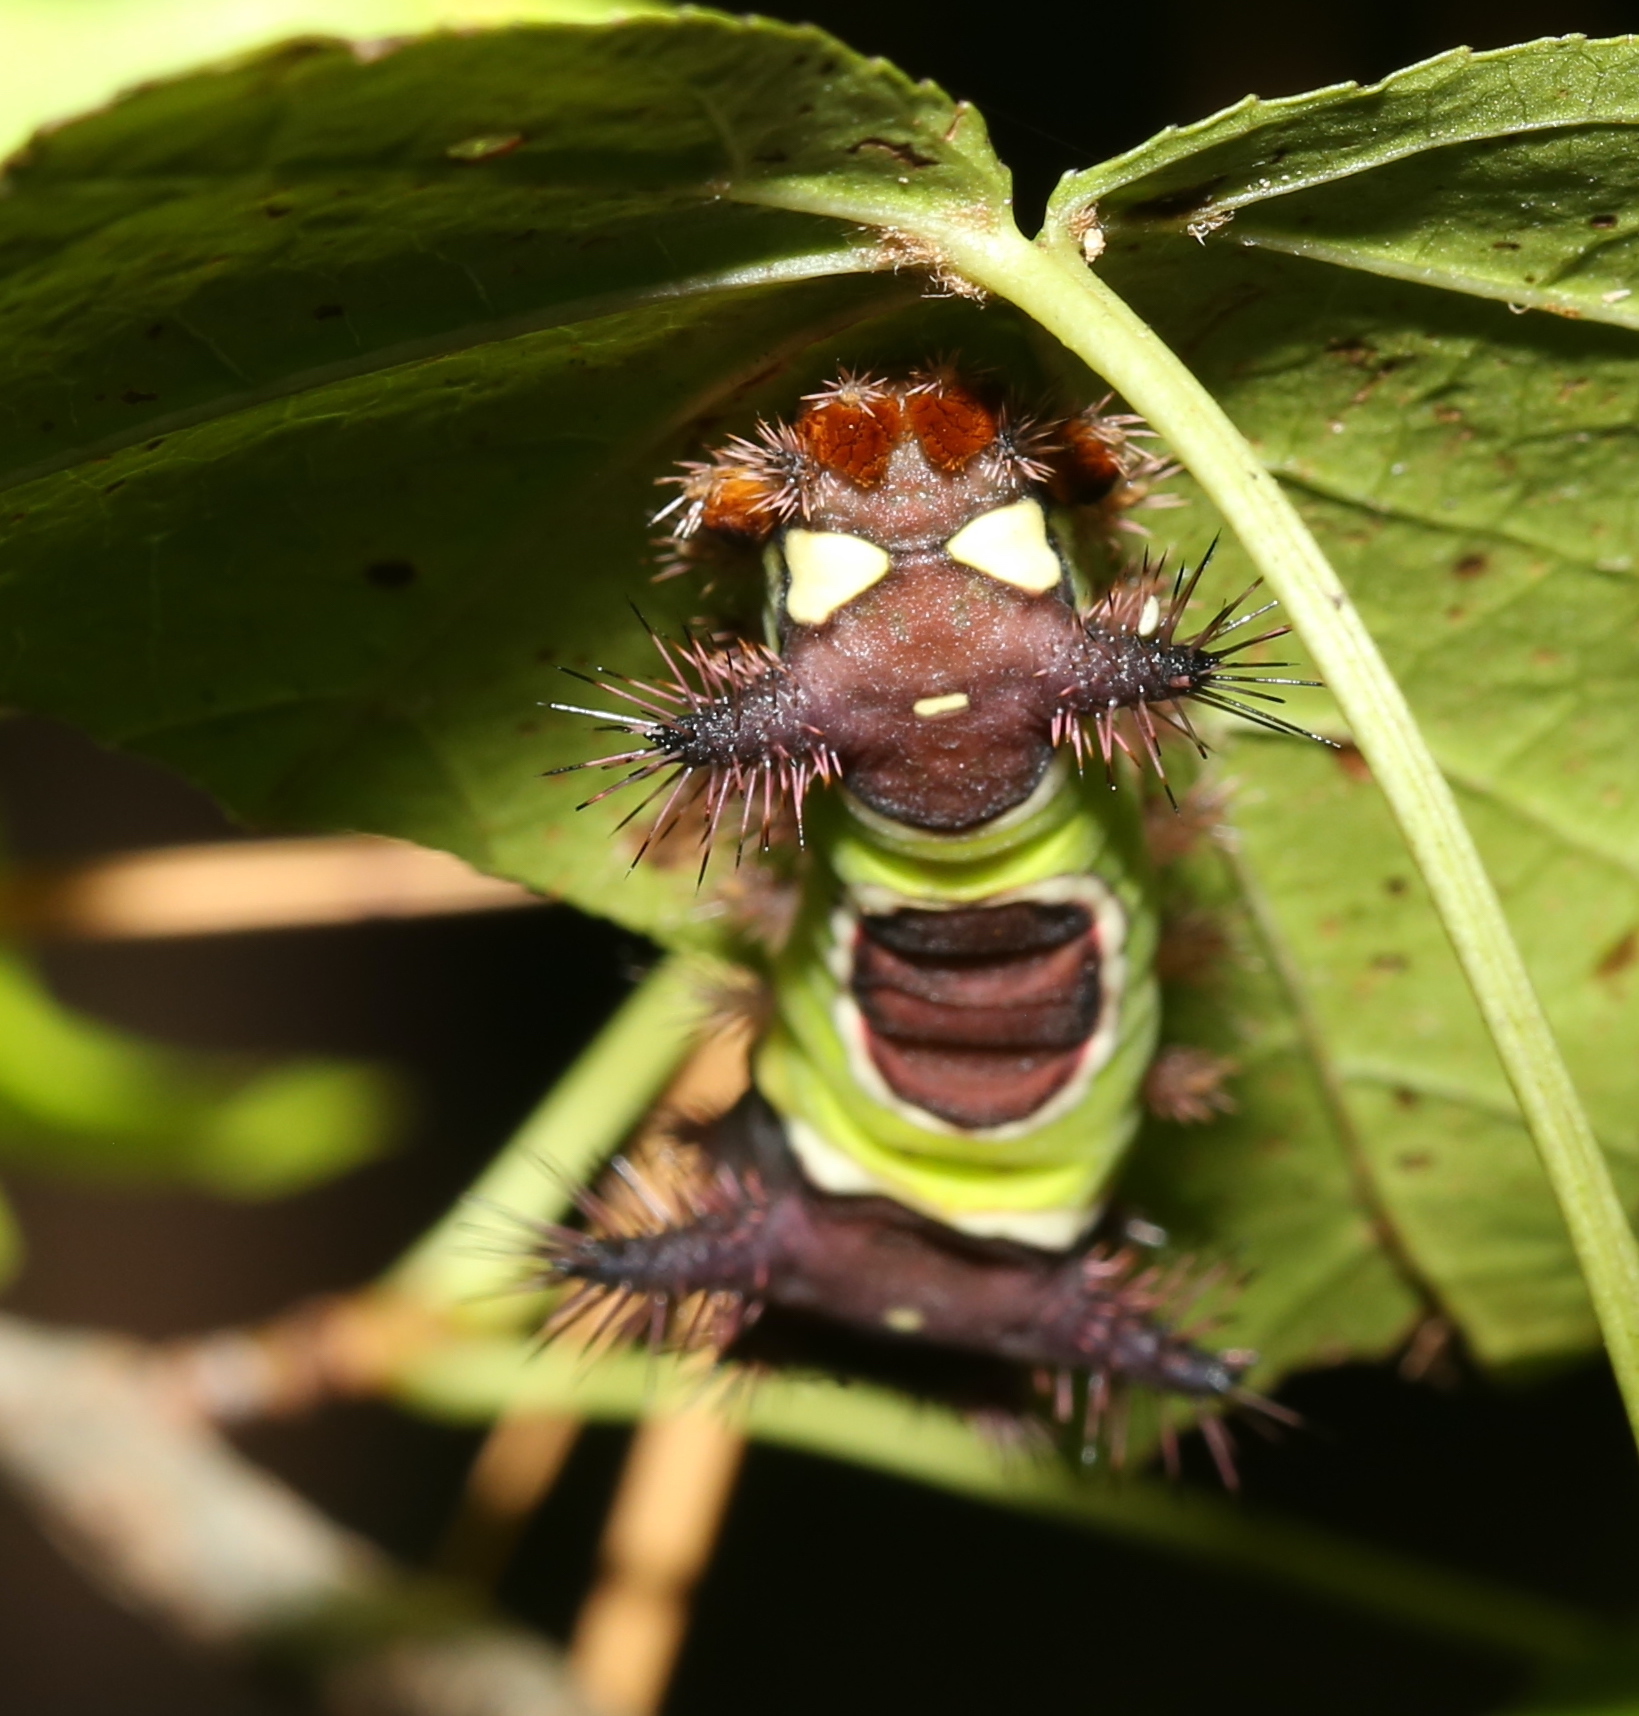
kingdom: Animalia
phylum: Arthropoda
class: Insecta
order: Lepidoptera
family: Limacodidae
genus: Acharia
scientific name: Acharia stimulea
